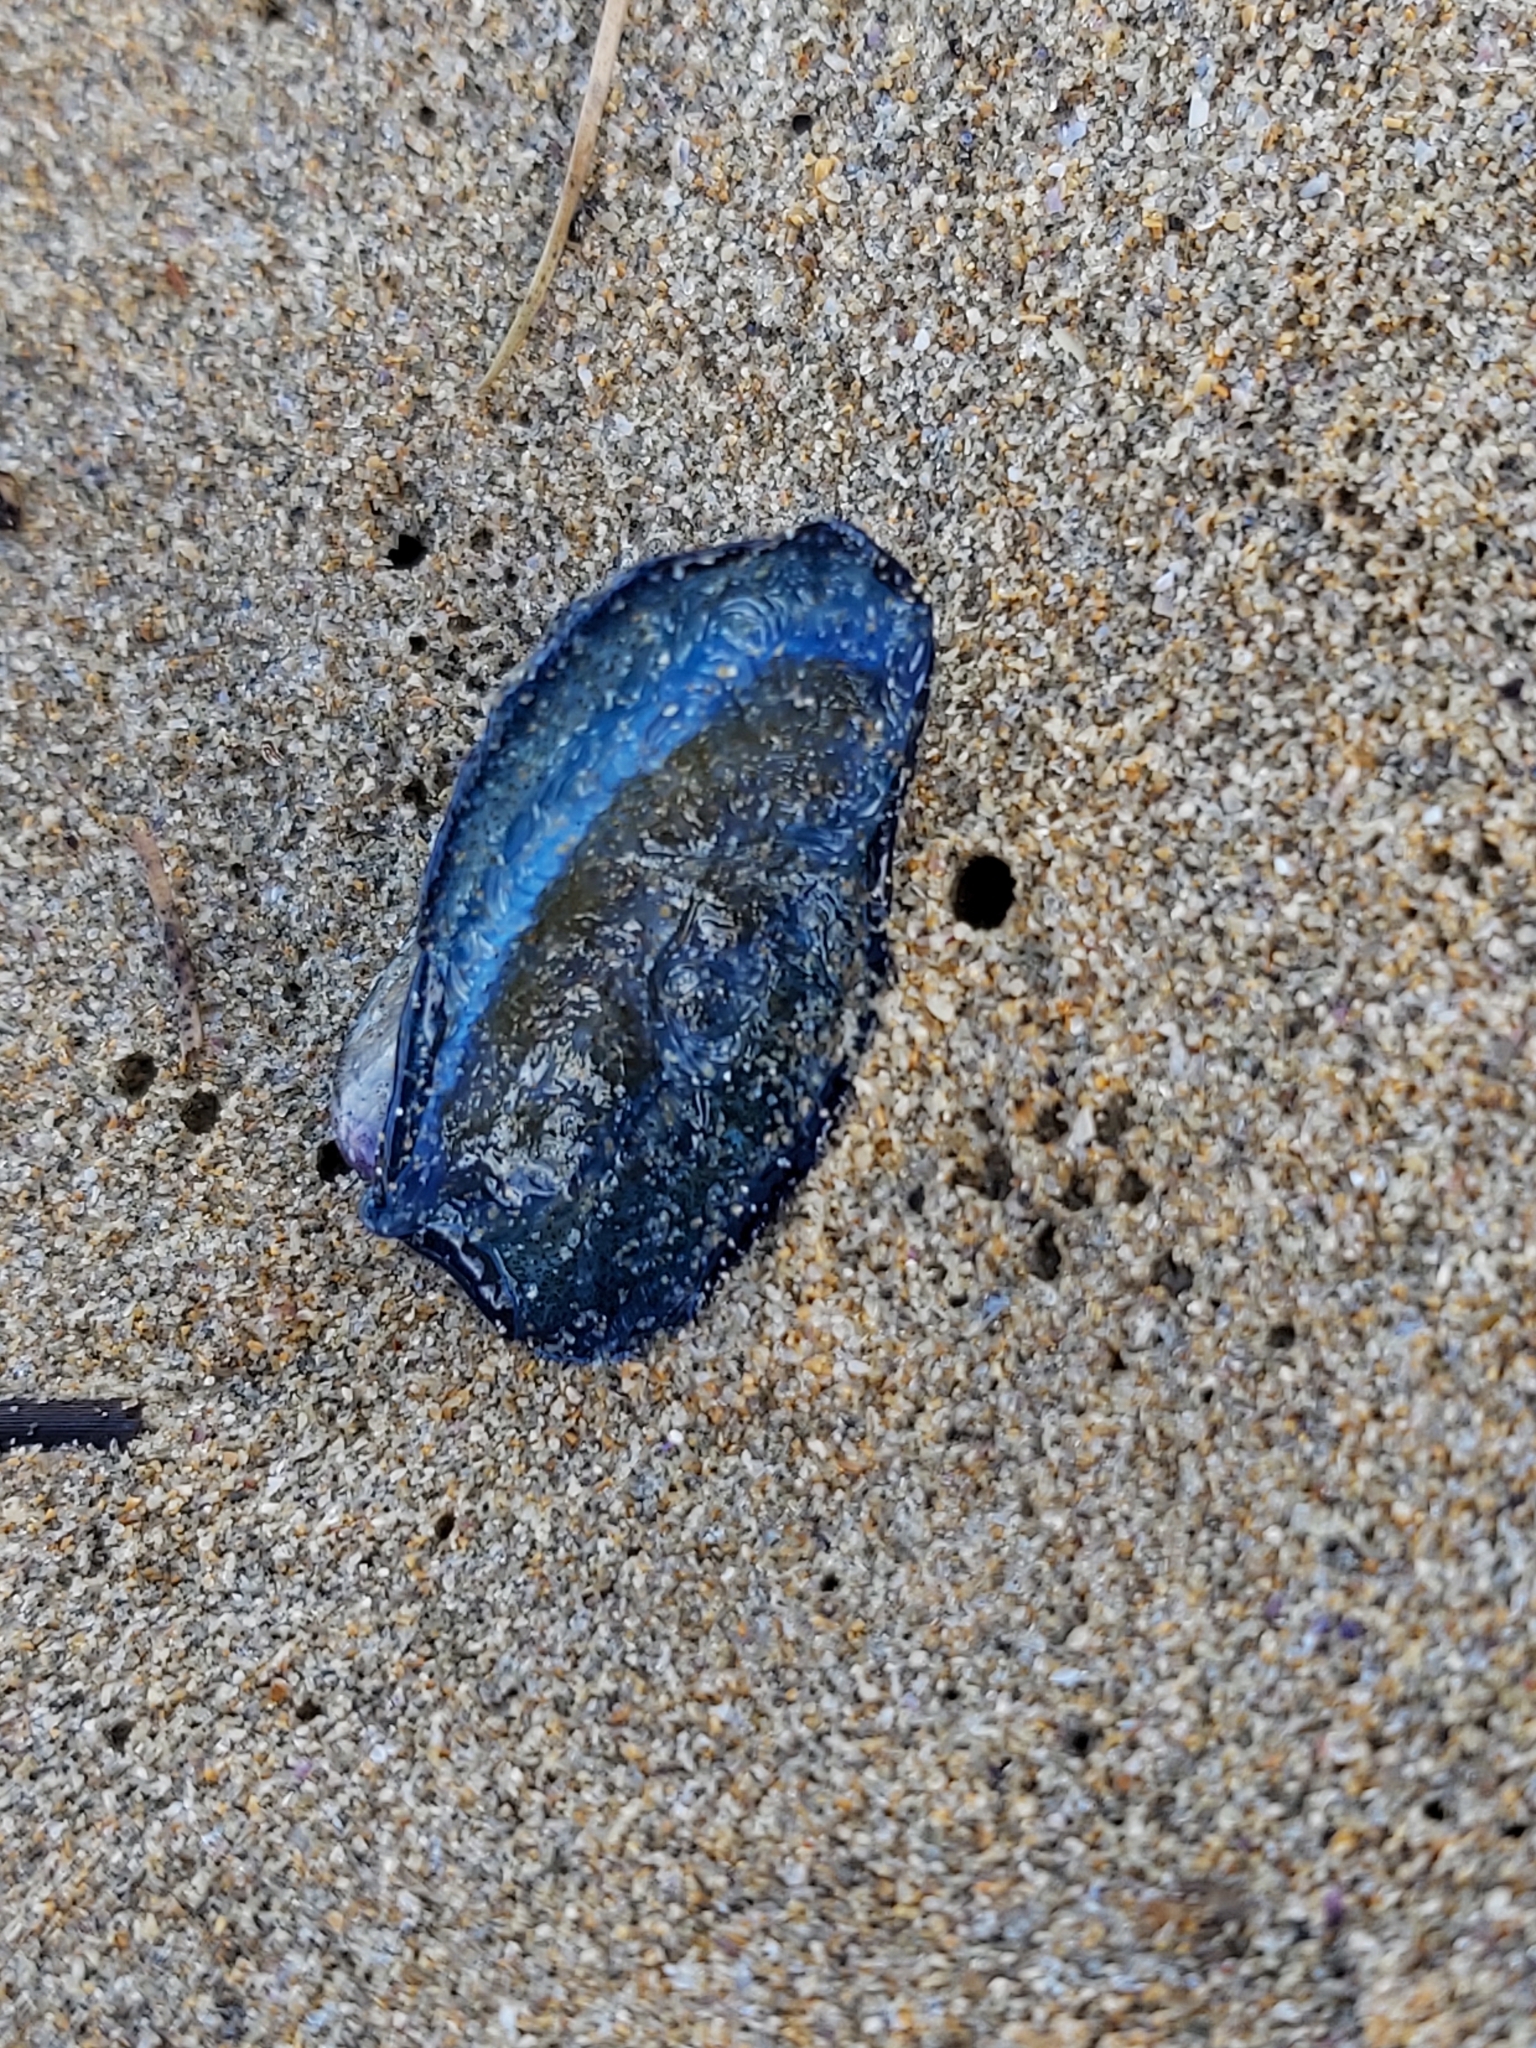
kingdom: Animalia
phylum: Cnidaria
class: Hydrozoa
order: Anthoathecata
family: Porpitidae
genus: Velella
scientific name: Velella velella
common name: By-the-wind-sailor
